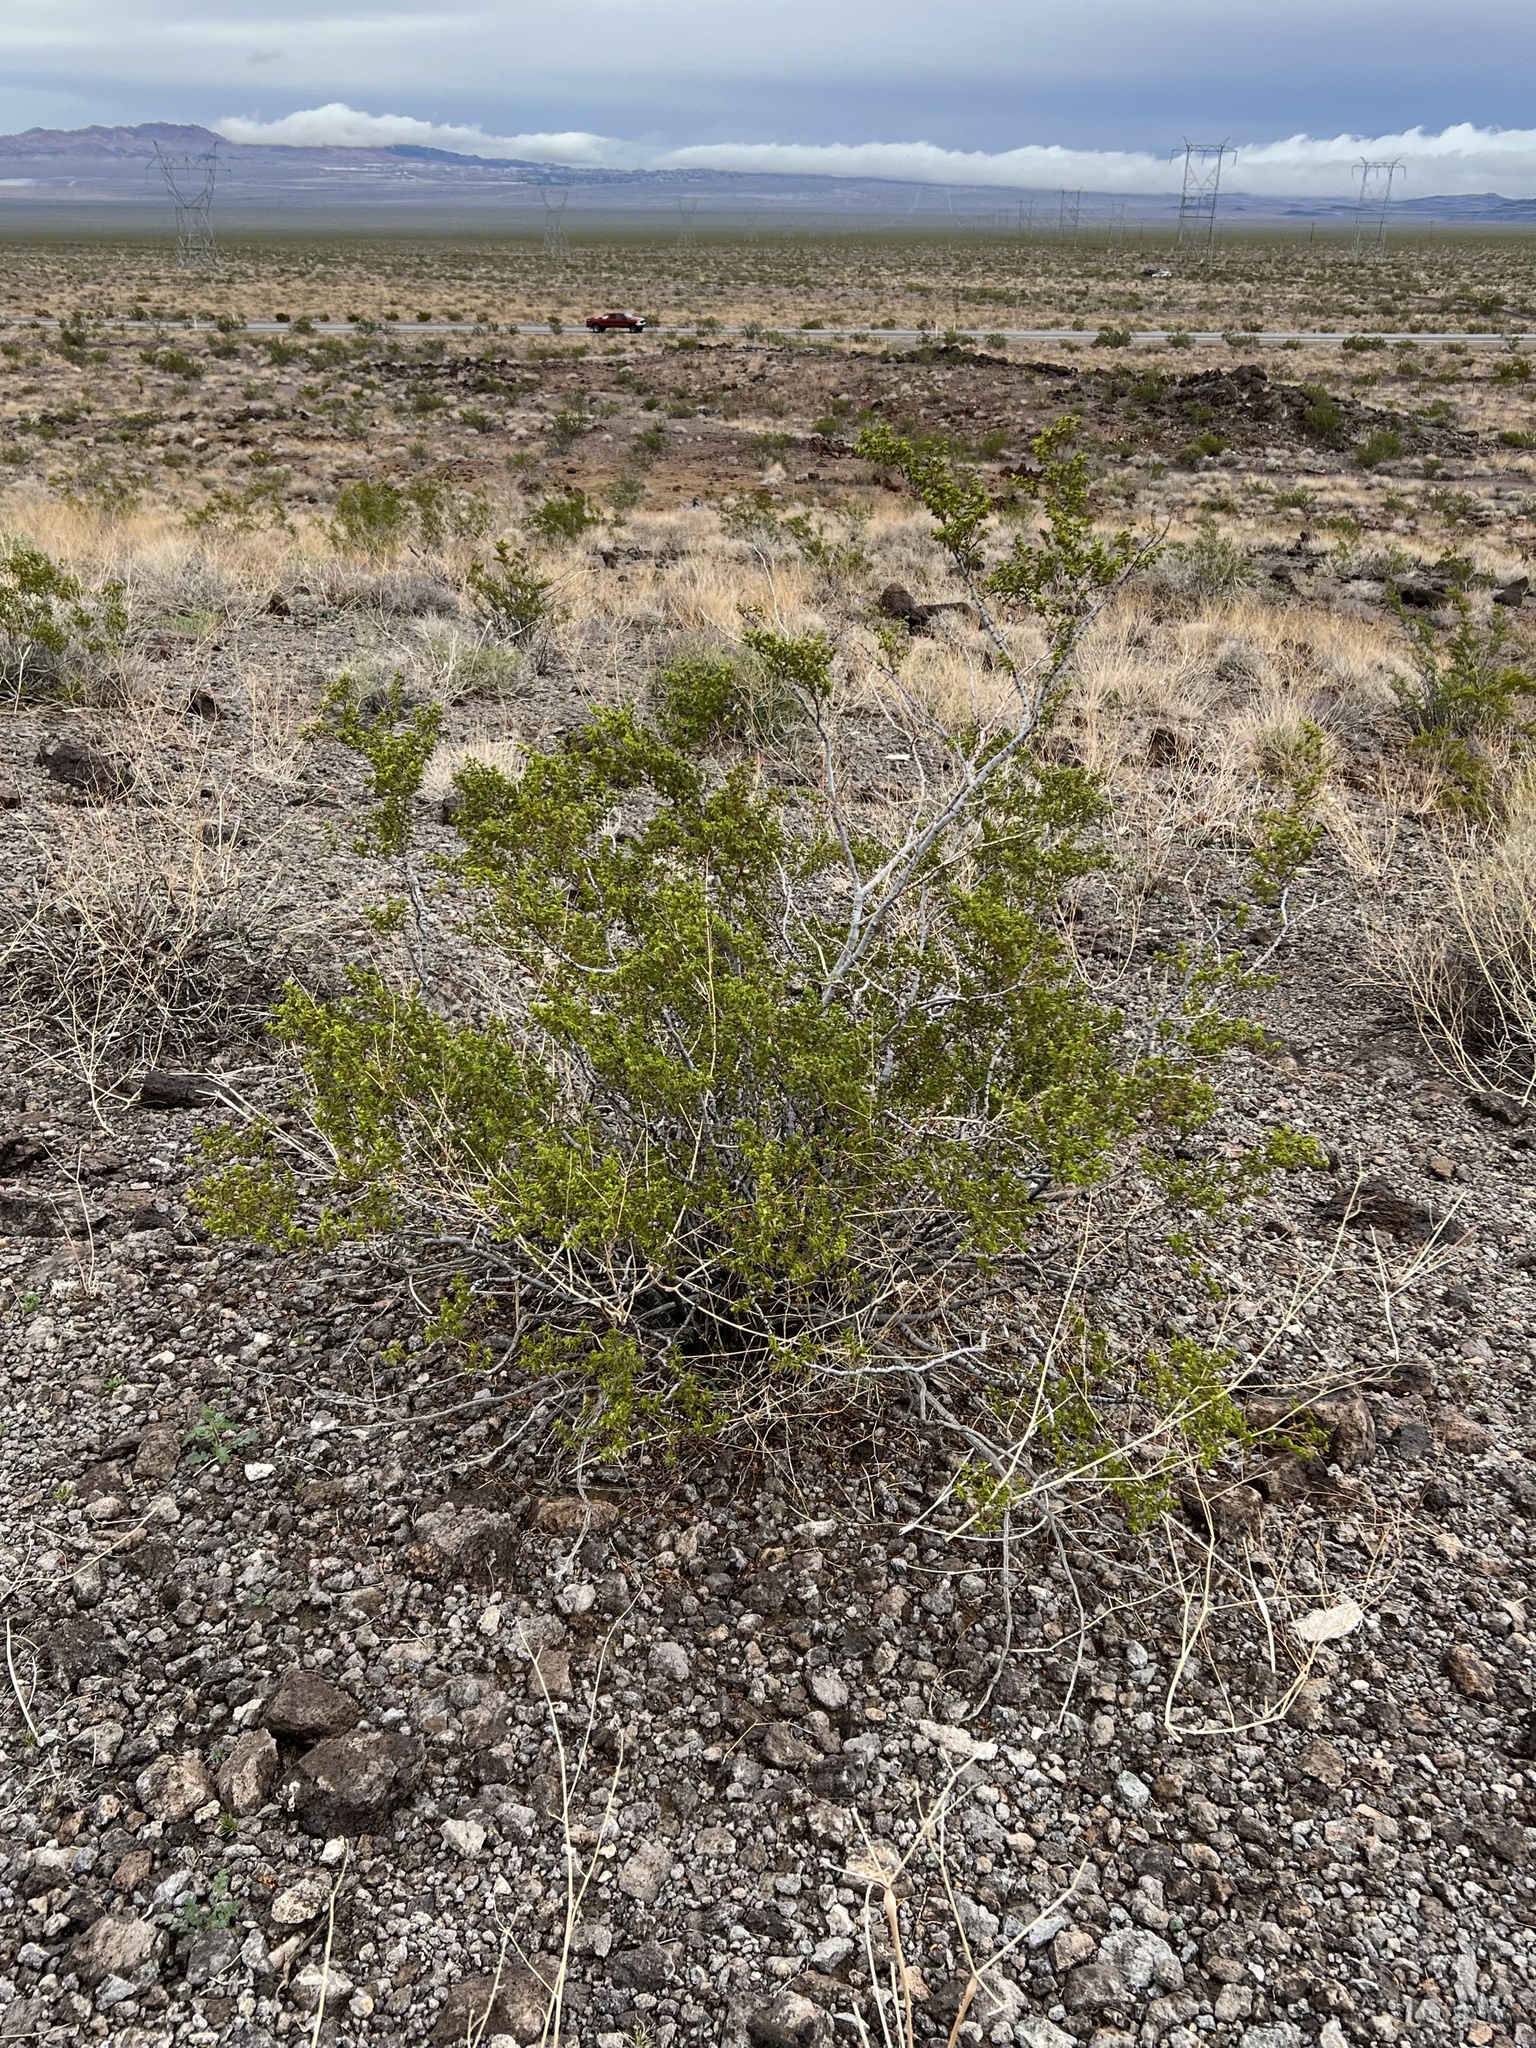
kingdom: Plantae
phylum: Tracheophyta
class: Magnoliopsida
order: Zygophyllales
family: Zygophyllaceae
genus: Larrea
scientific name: Larrea tridentata
